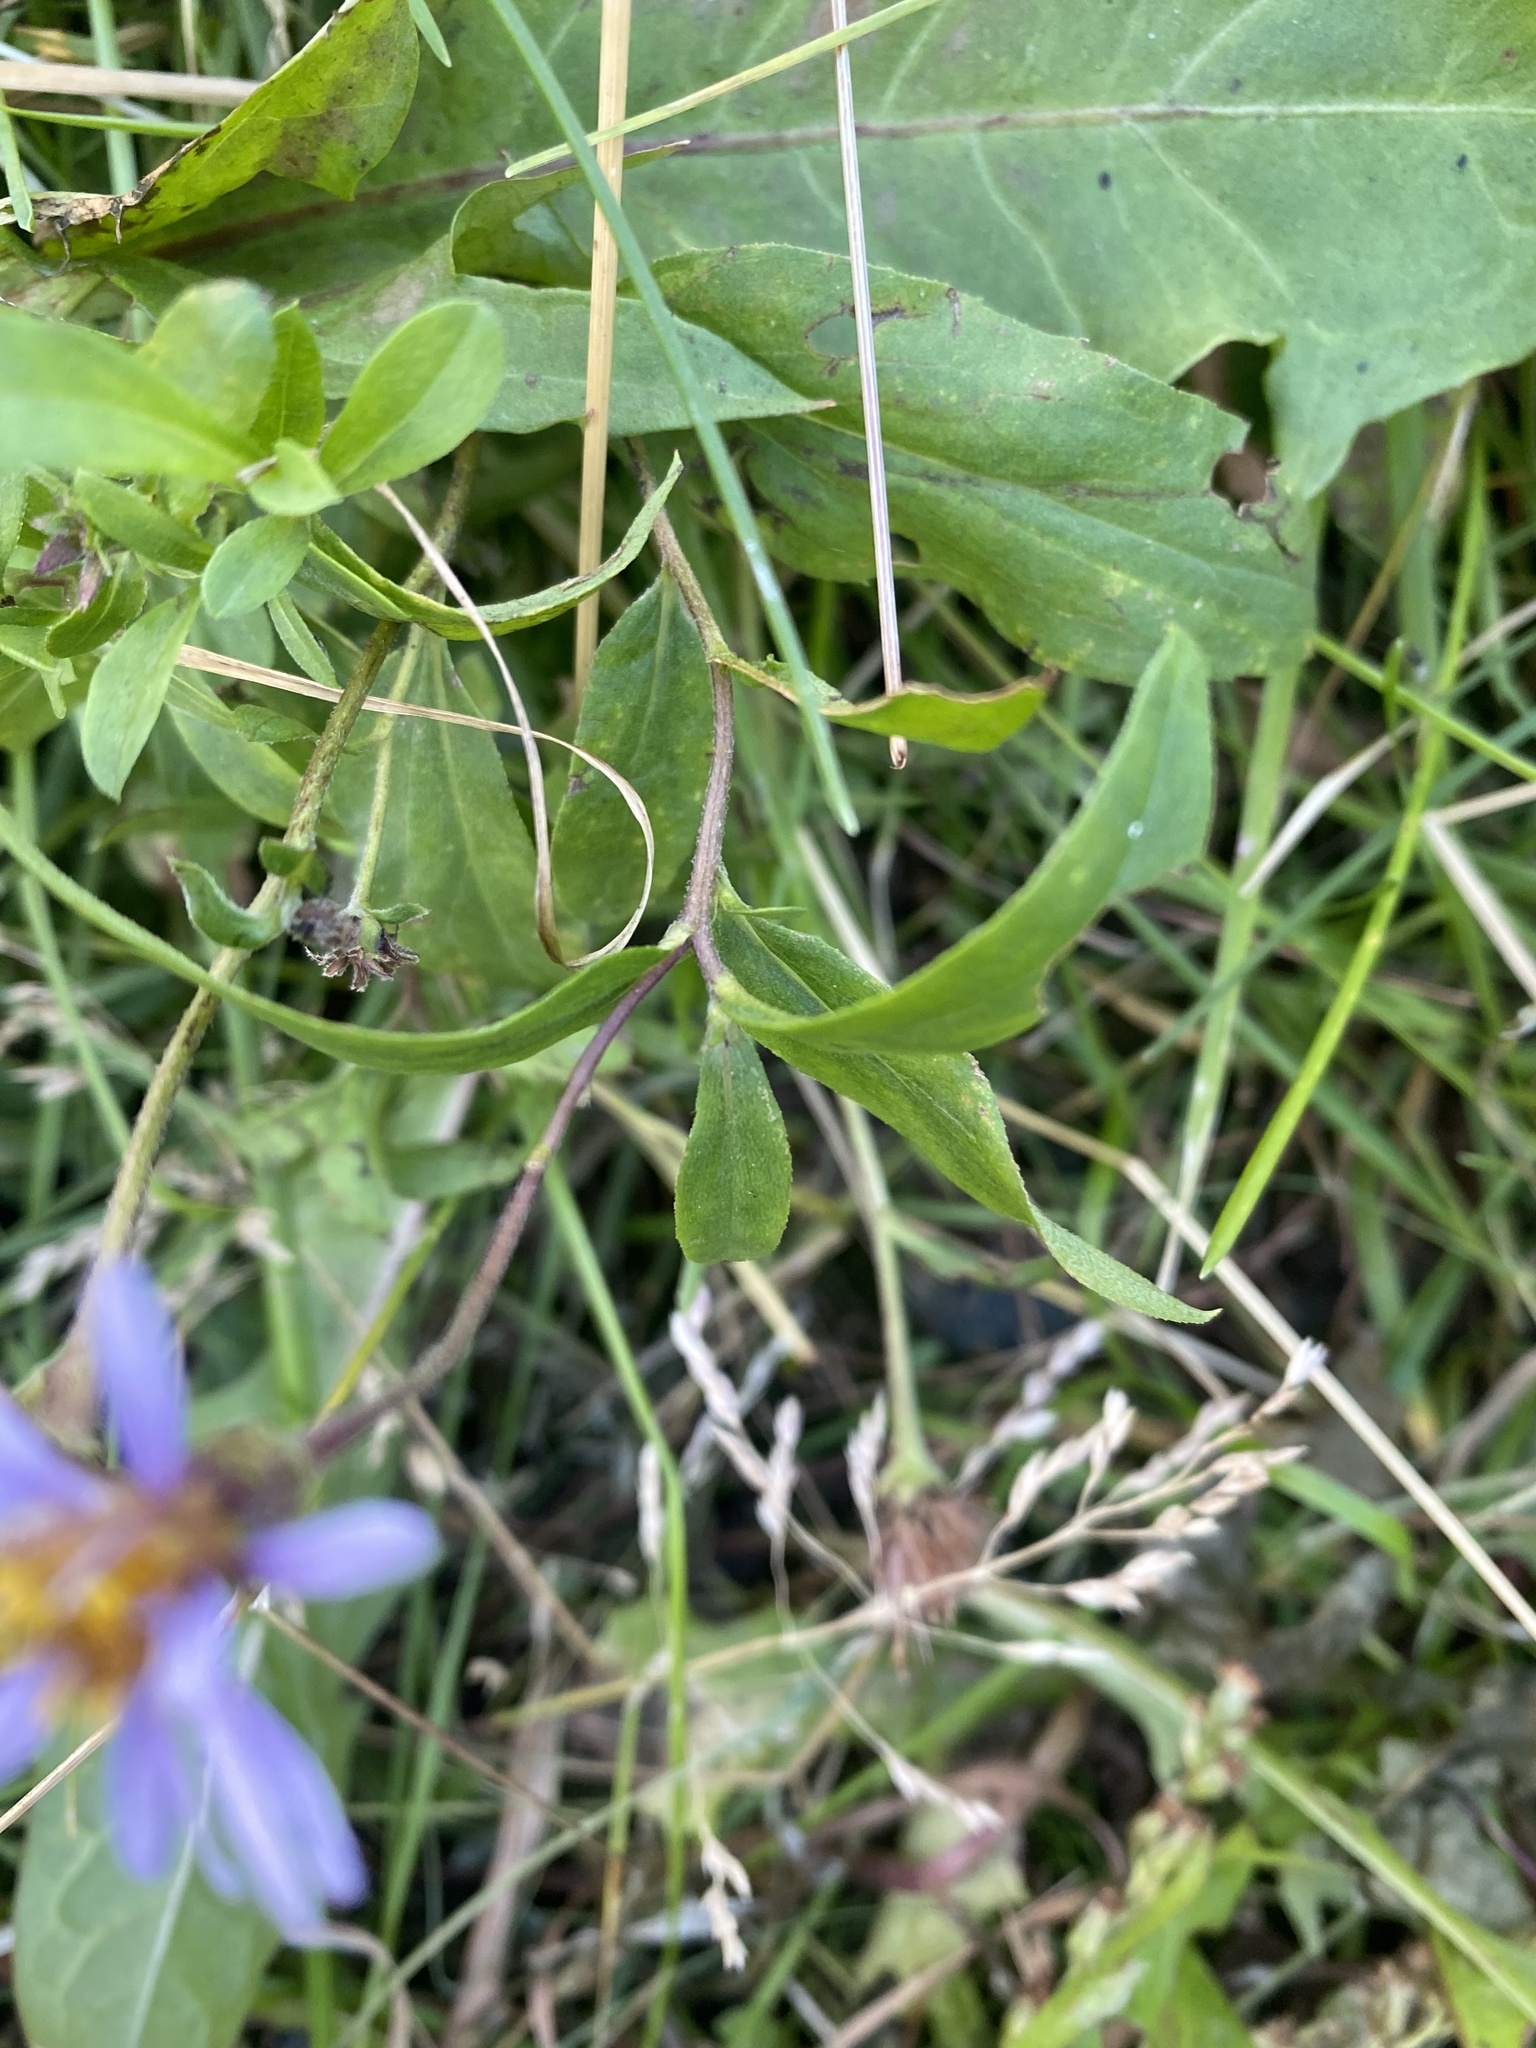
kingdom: Plantae
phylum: Tracheophyta
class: Magnoliopsida
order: Asterales
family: Asteraceae
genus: Eurybia
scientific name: Eurybia sibirica
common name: Arctic aster
